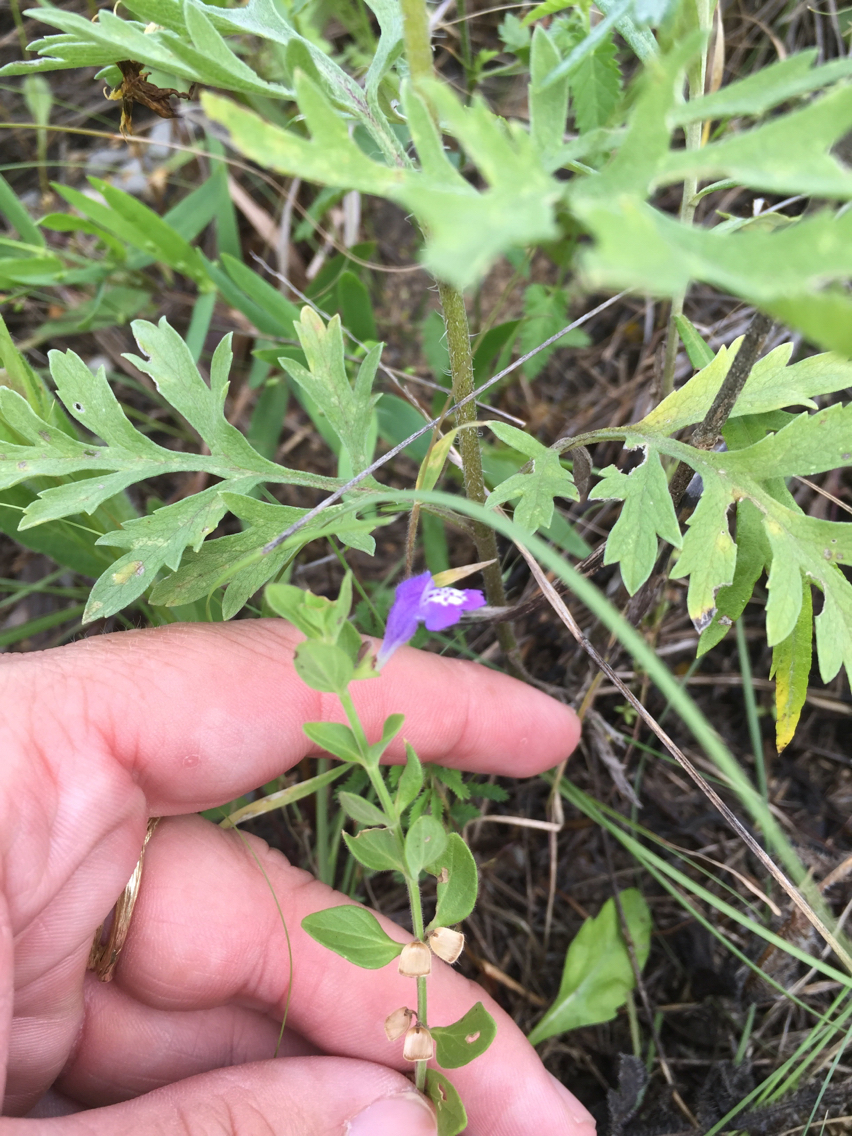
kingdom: Plantae
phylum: Tracheophyta
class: Magnoliopsida
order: Lamiales
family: Lamiaceae
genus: Scutellaria
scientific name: Scutellaria drummondii
